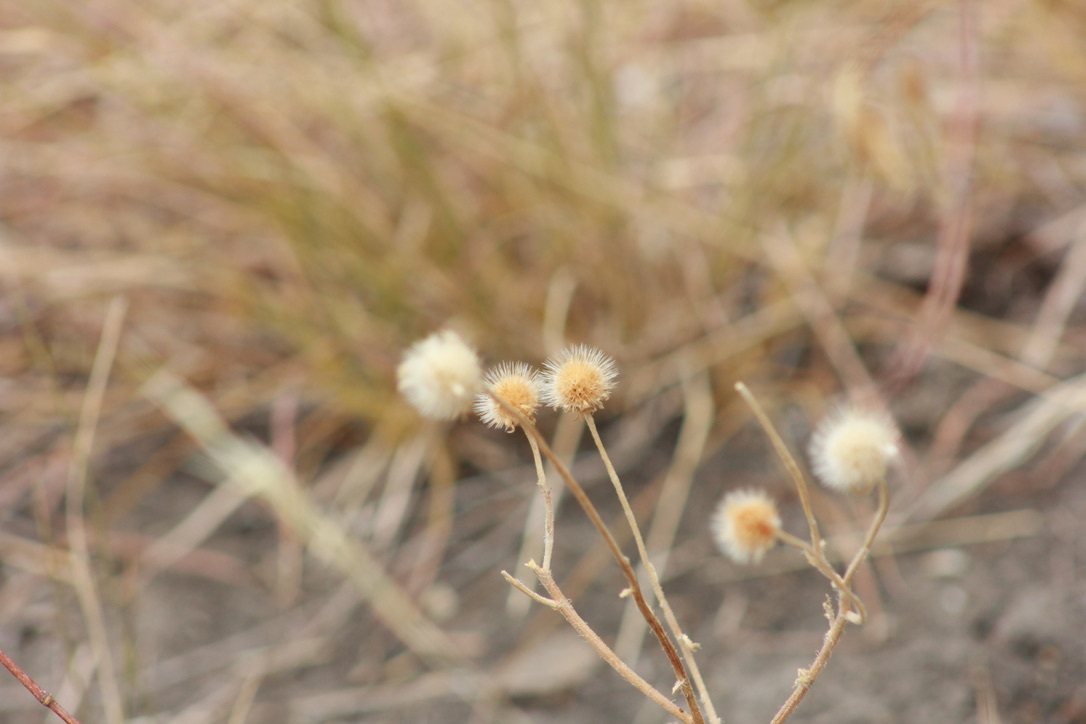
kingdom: Plantae
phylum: Tracheophyta
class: Magnoliopsida
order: Asterales
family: Asteraceae
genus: Gaillardia
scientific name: Gaillardia pulchella
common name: Firewheel
